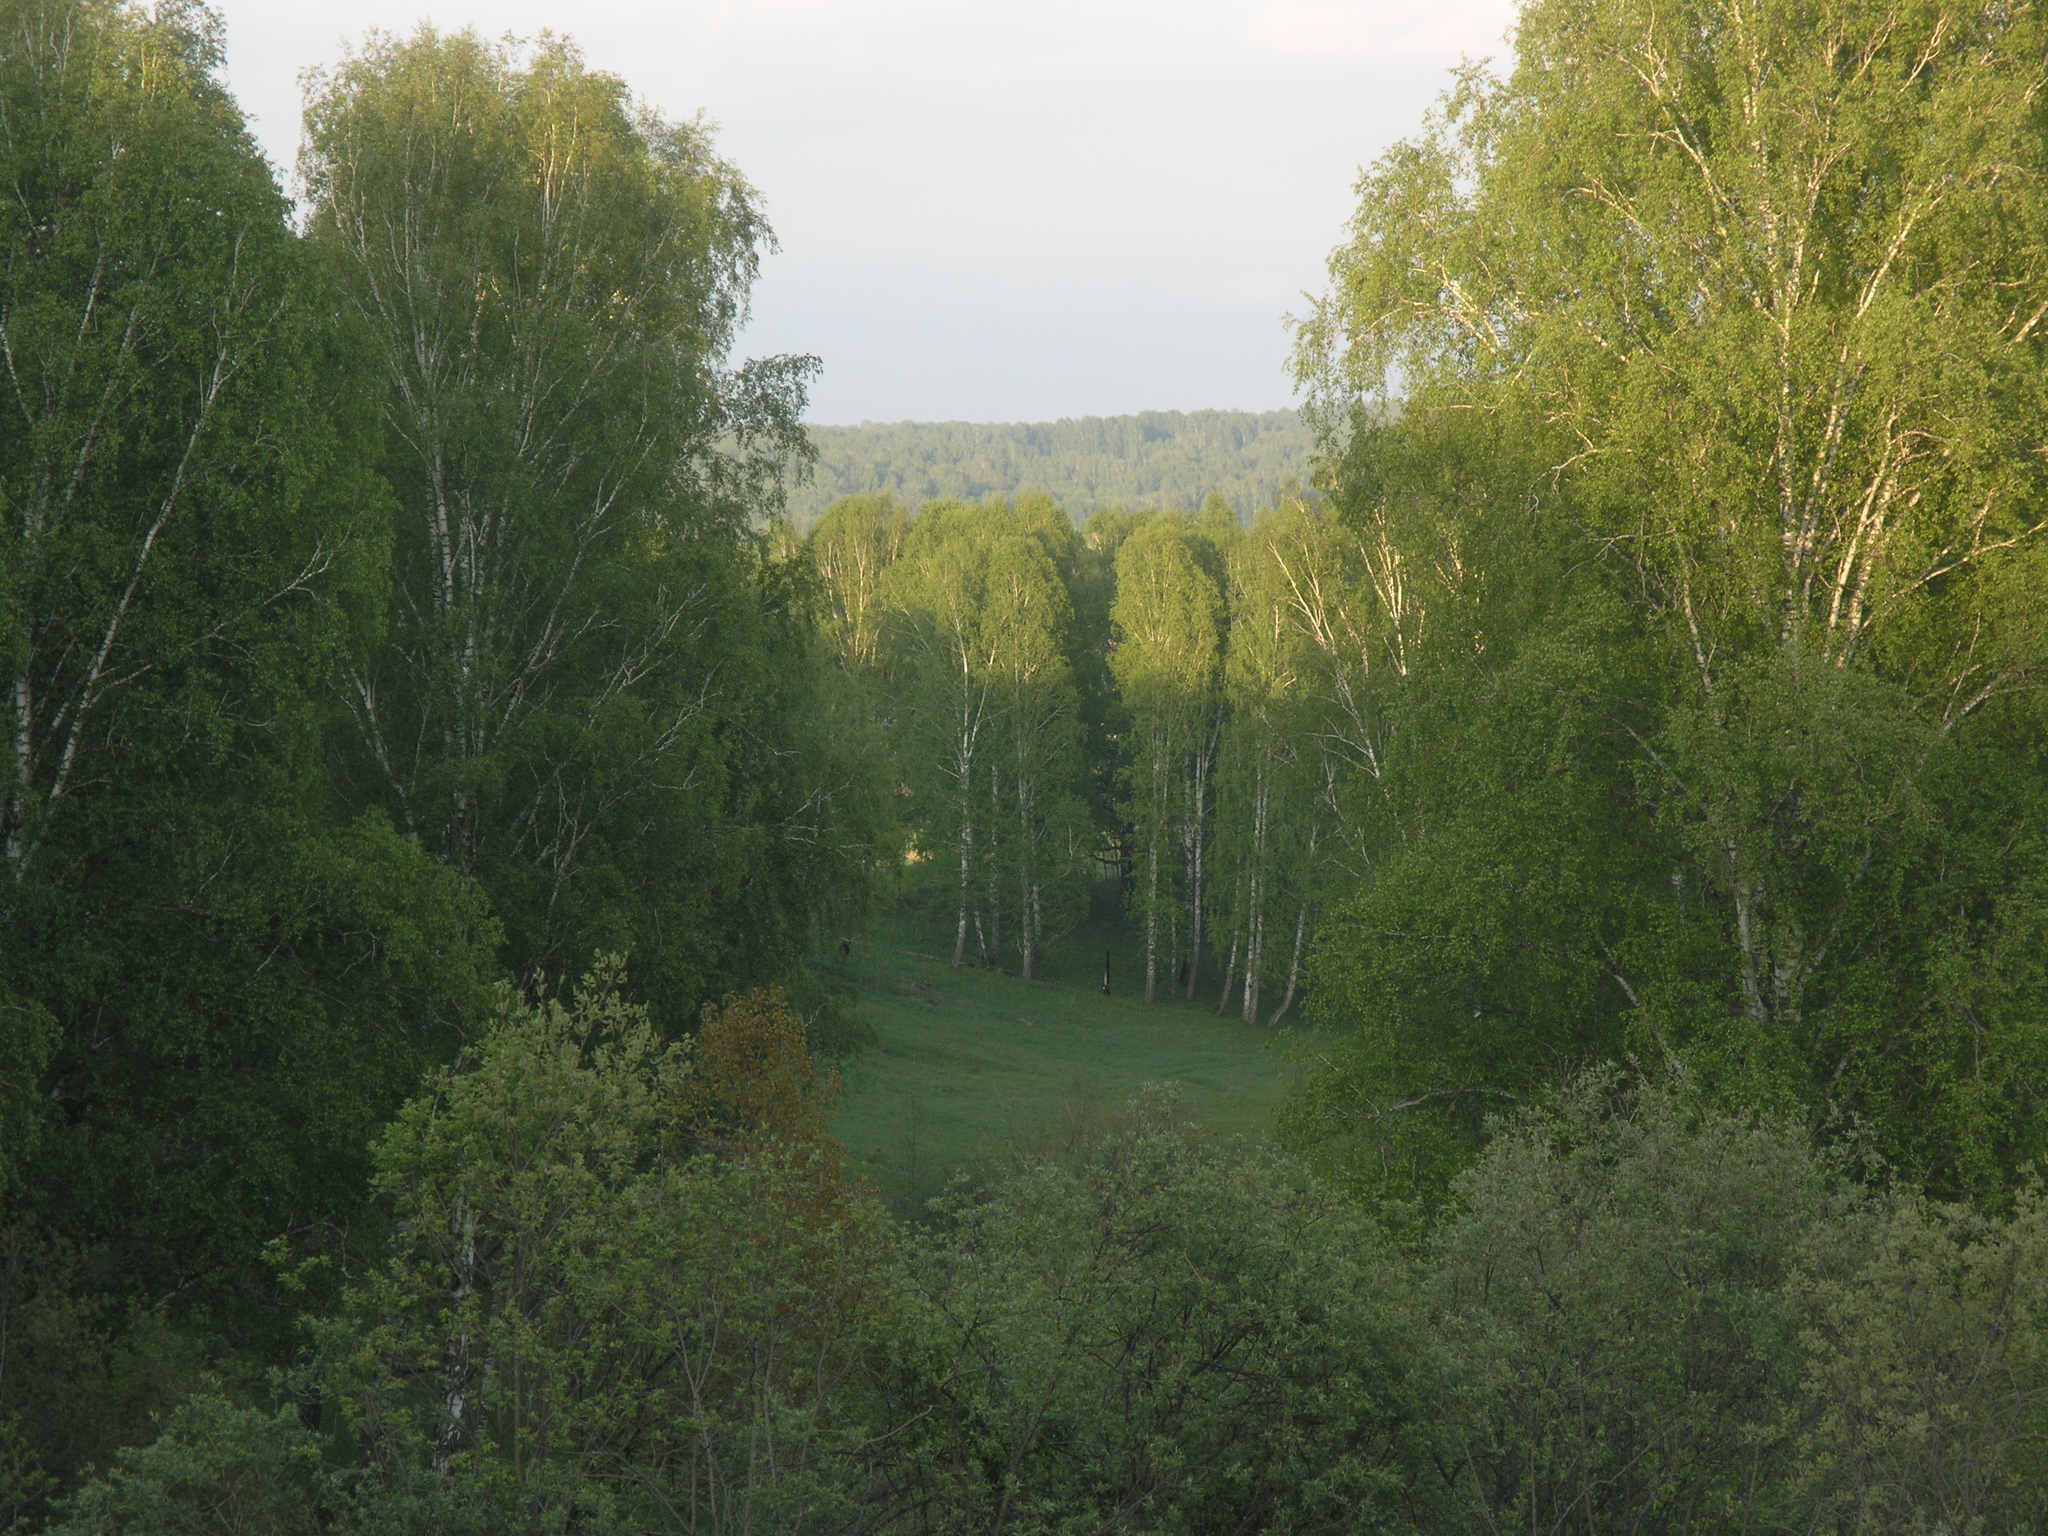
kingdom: Plantae
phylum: Tracheophyta
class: Magnoliopsida
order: Fagales
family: Betulaceae
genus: Betula
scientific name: Betula pendula
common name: Silver birch
